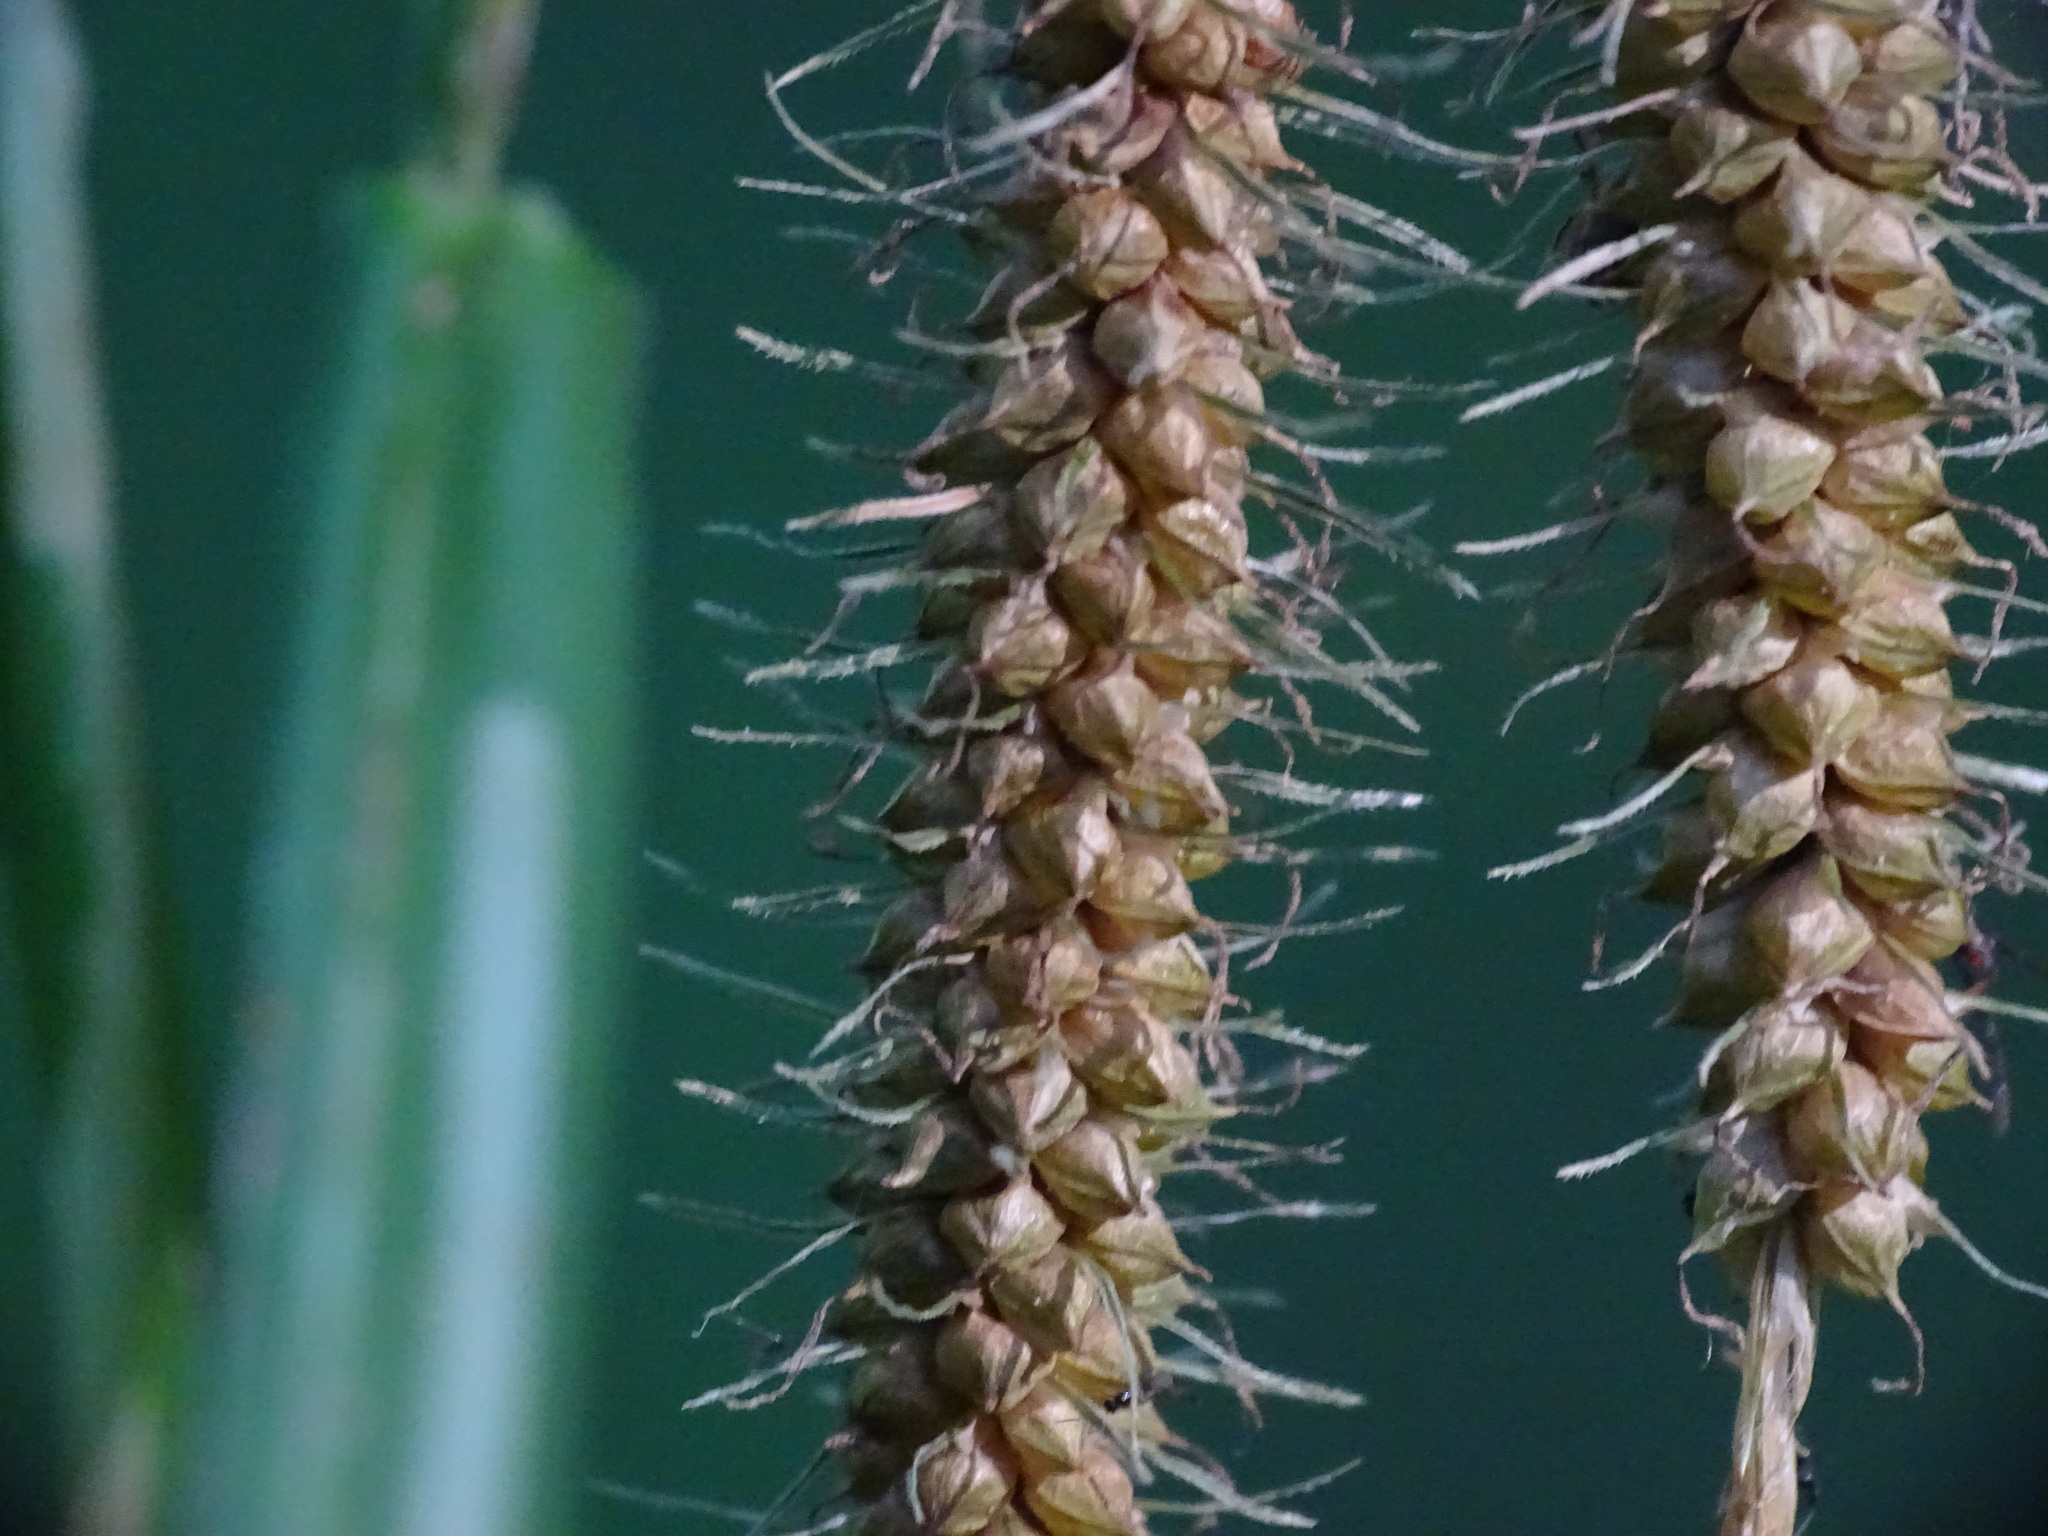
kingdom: Plantae
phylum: Tracheophyta
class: Liliopsida
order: Poales
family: Cyperaceae
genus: Carex
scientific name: Carex crinita
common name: Fringed sedge
